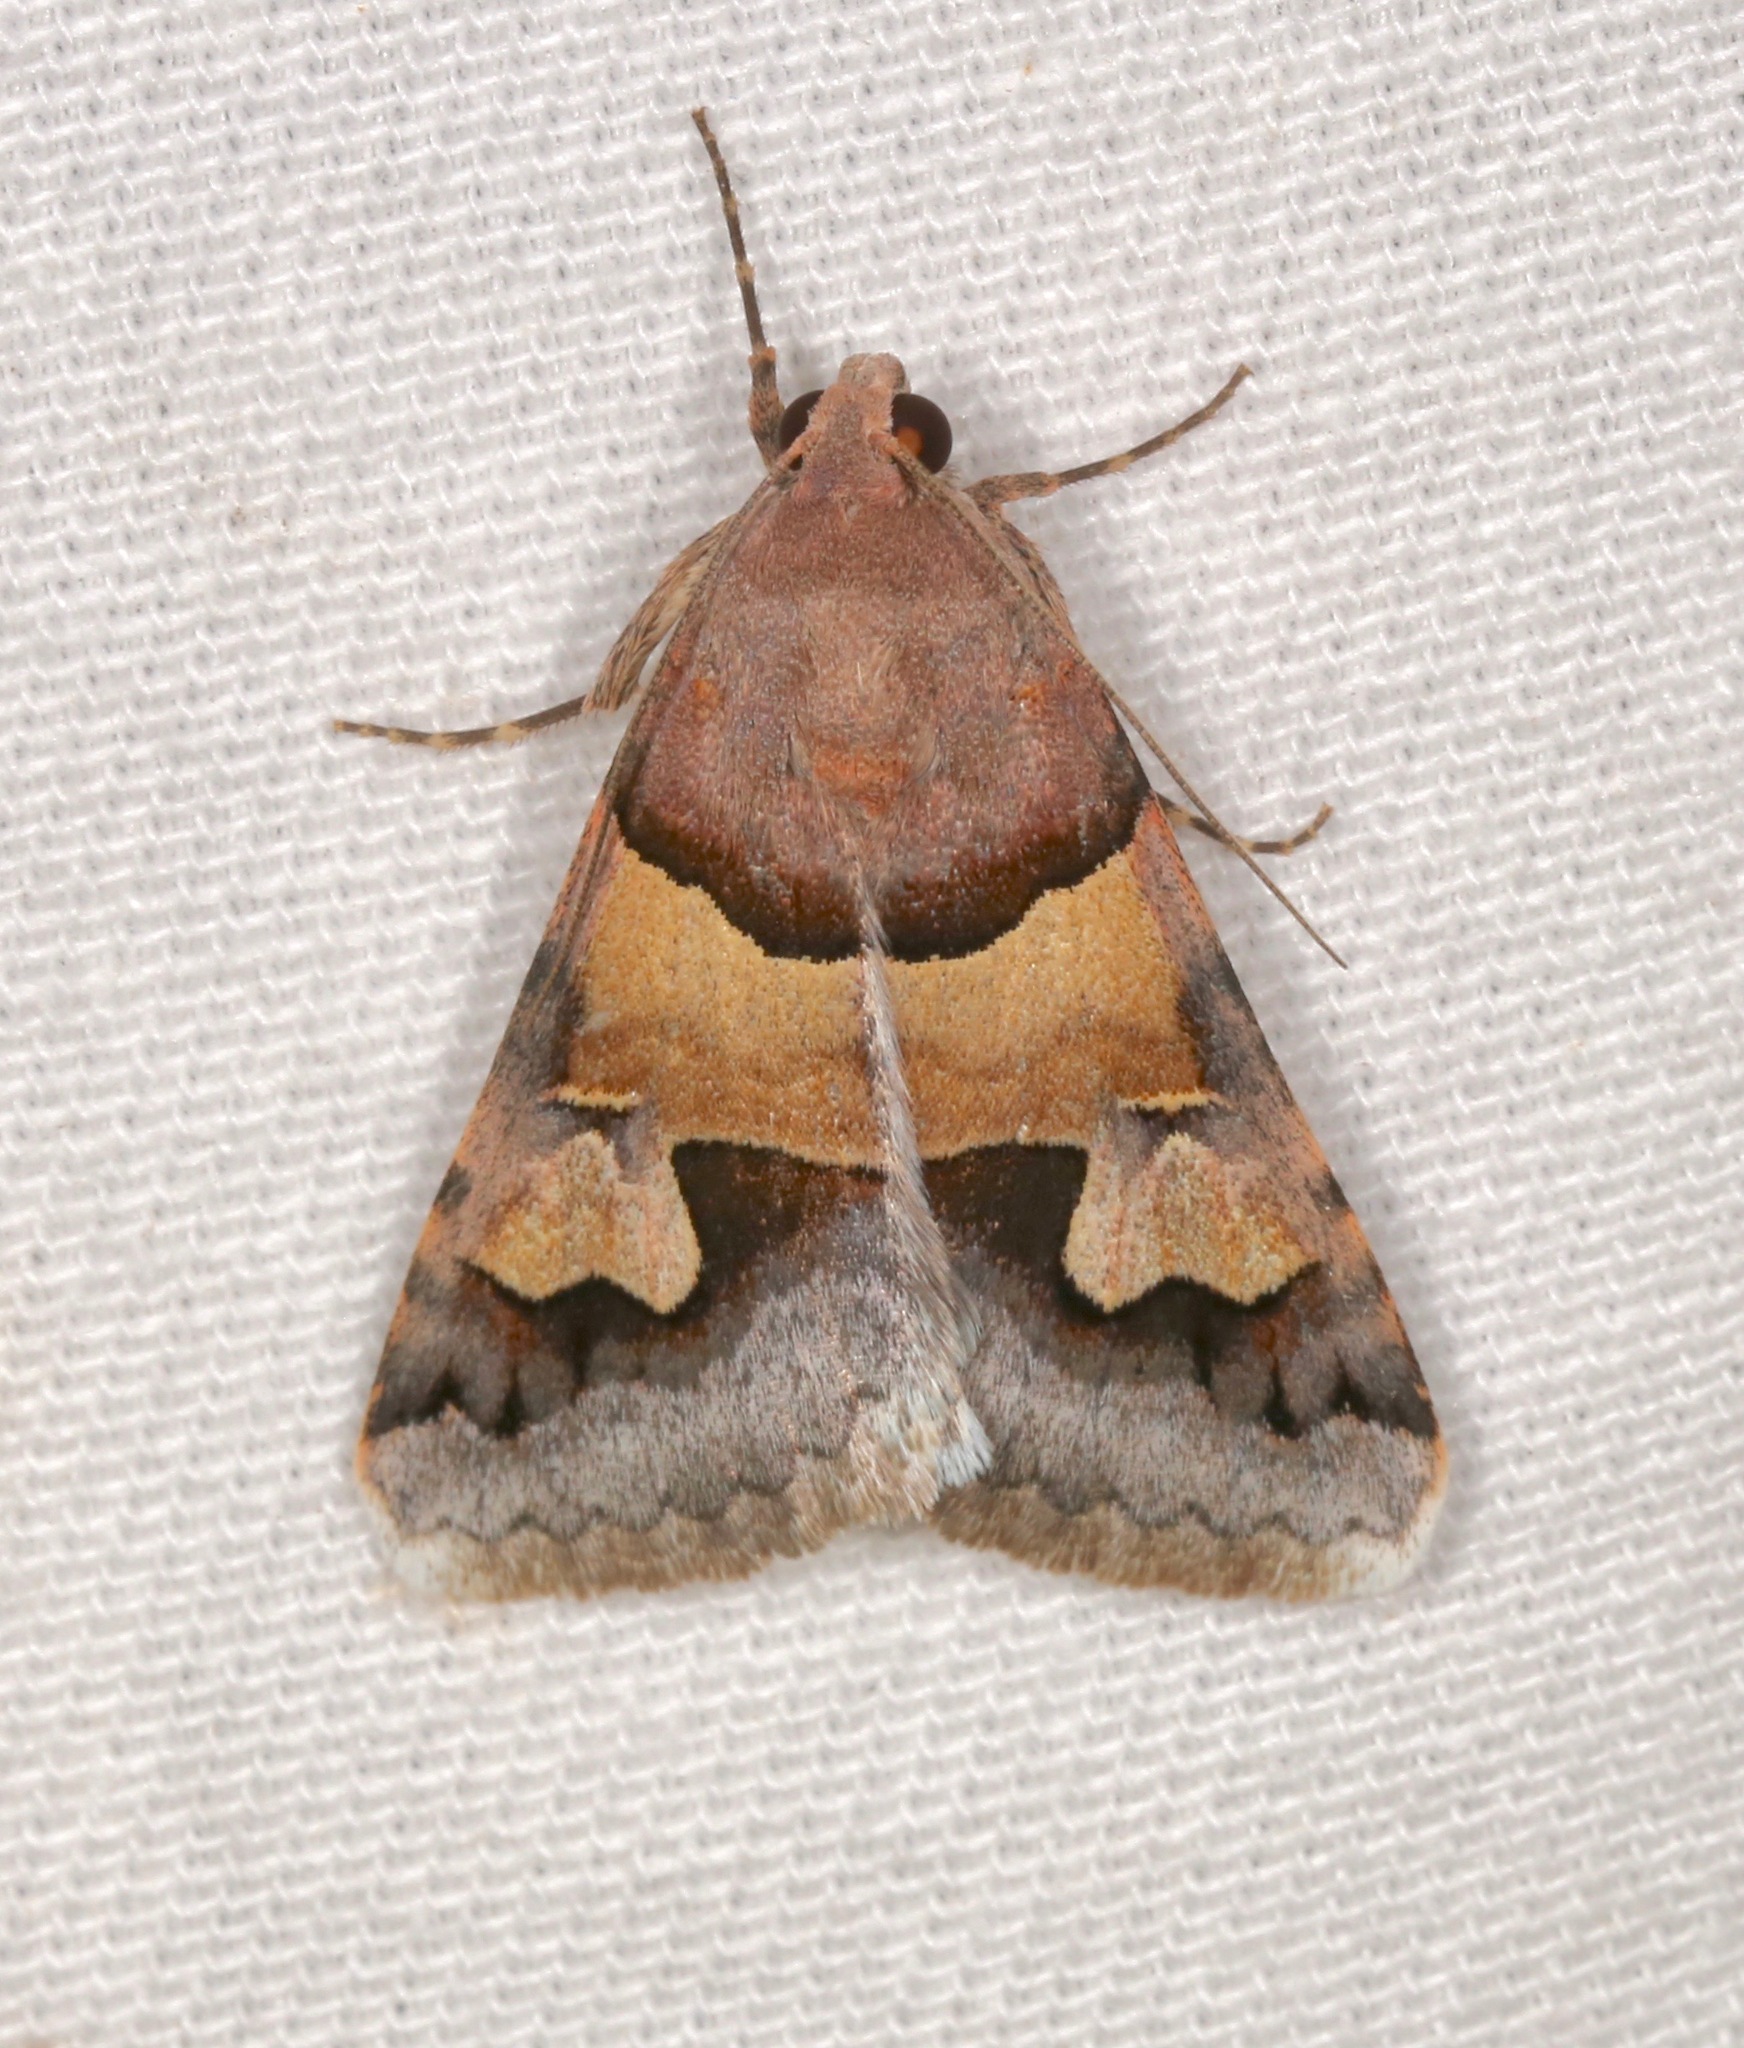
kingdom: Animalia
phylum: Arthropoda
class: Insecta
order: Lepidoptera
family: Erebidae
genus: Drasteria
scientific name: Drasteria pallescens
